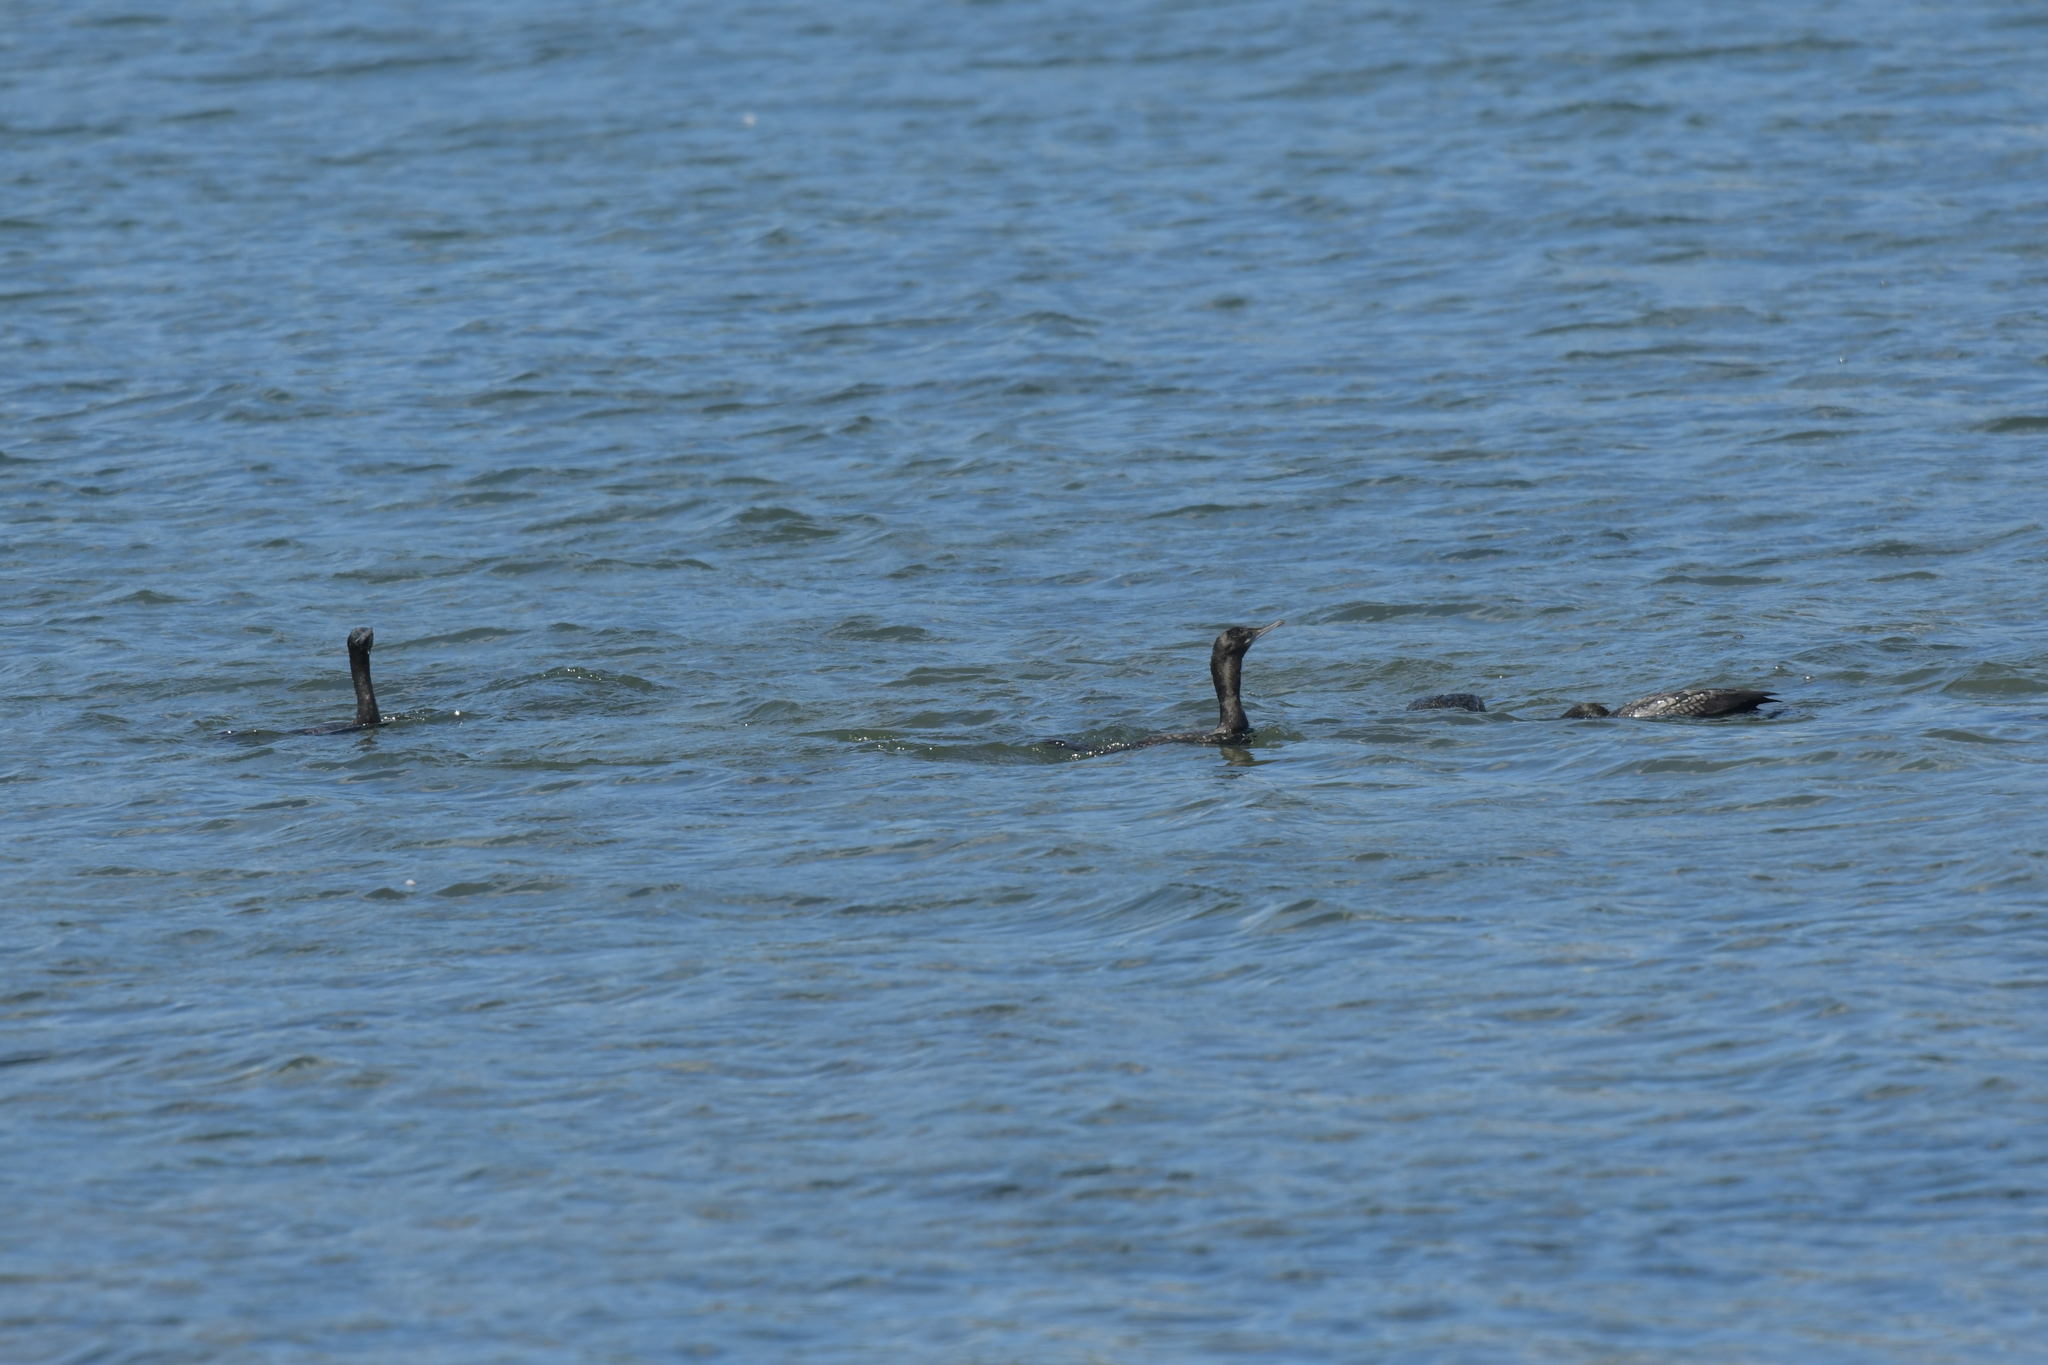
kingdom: Animalia
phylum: Chordata
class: Aves
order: Suliformes
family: Phalacrocoracidae
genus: Phalacrocorax
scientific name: Phalacrocorax sulcirostris
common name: Little black cormorant
